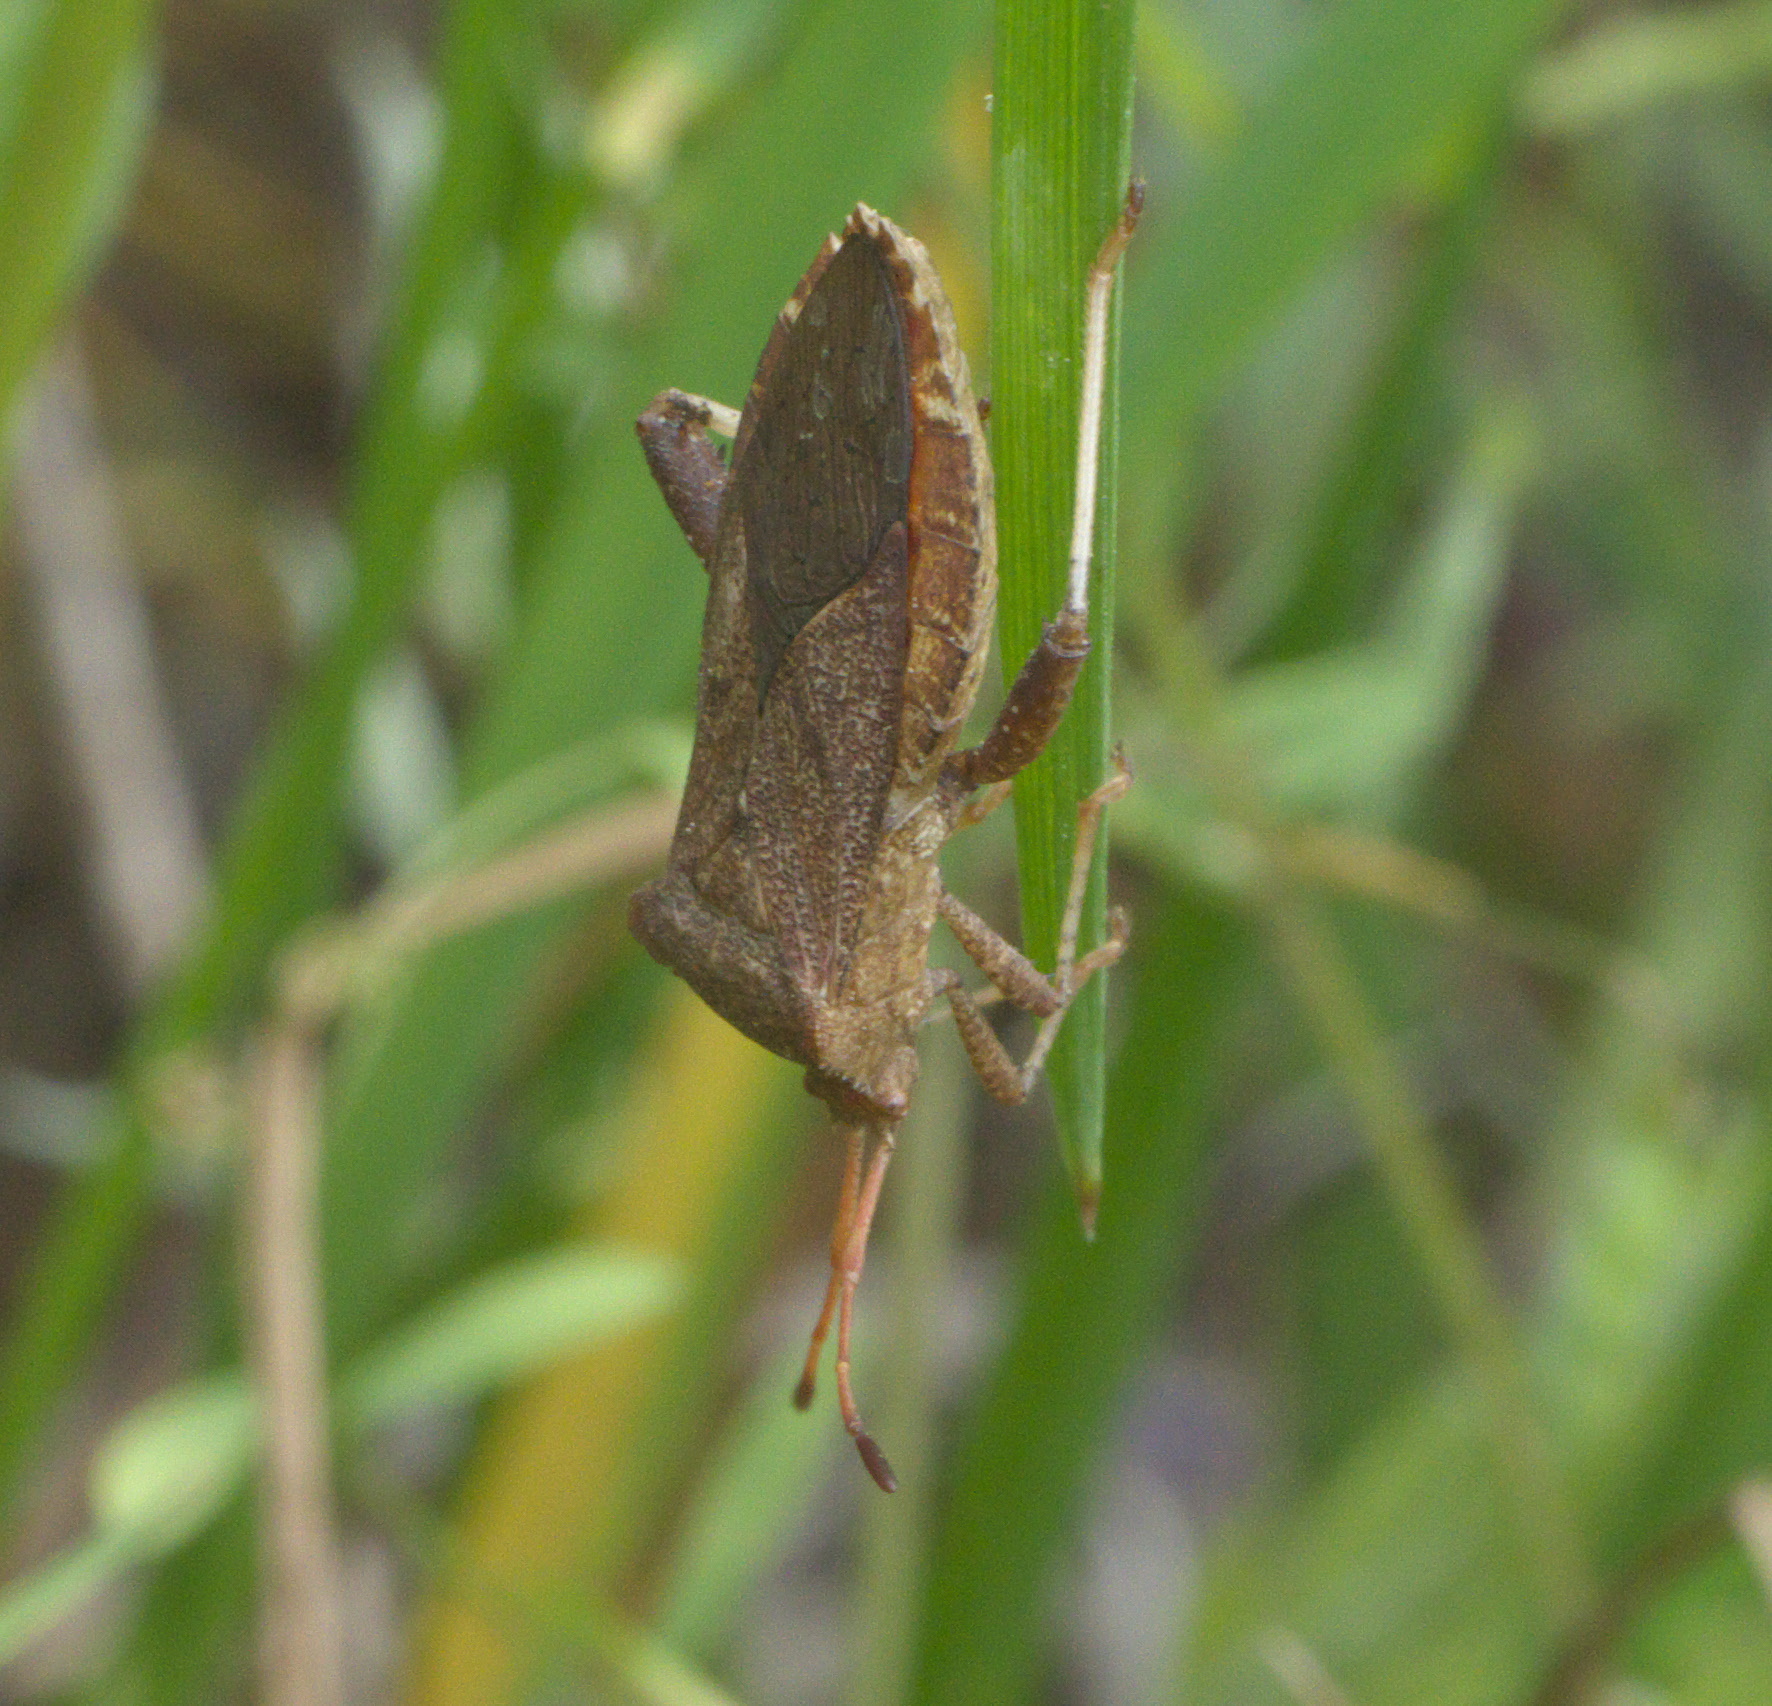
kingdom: Animalia
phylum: Arthropoda
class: Insecta
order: Hemiptera
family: Coreidae
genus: Euthochtha
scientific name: Euthochtha galeator
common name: Helmeted squash bug
